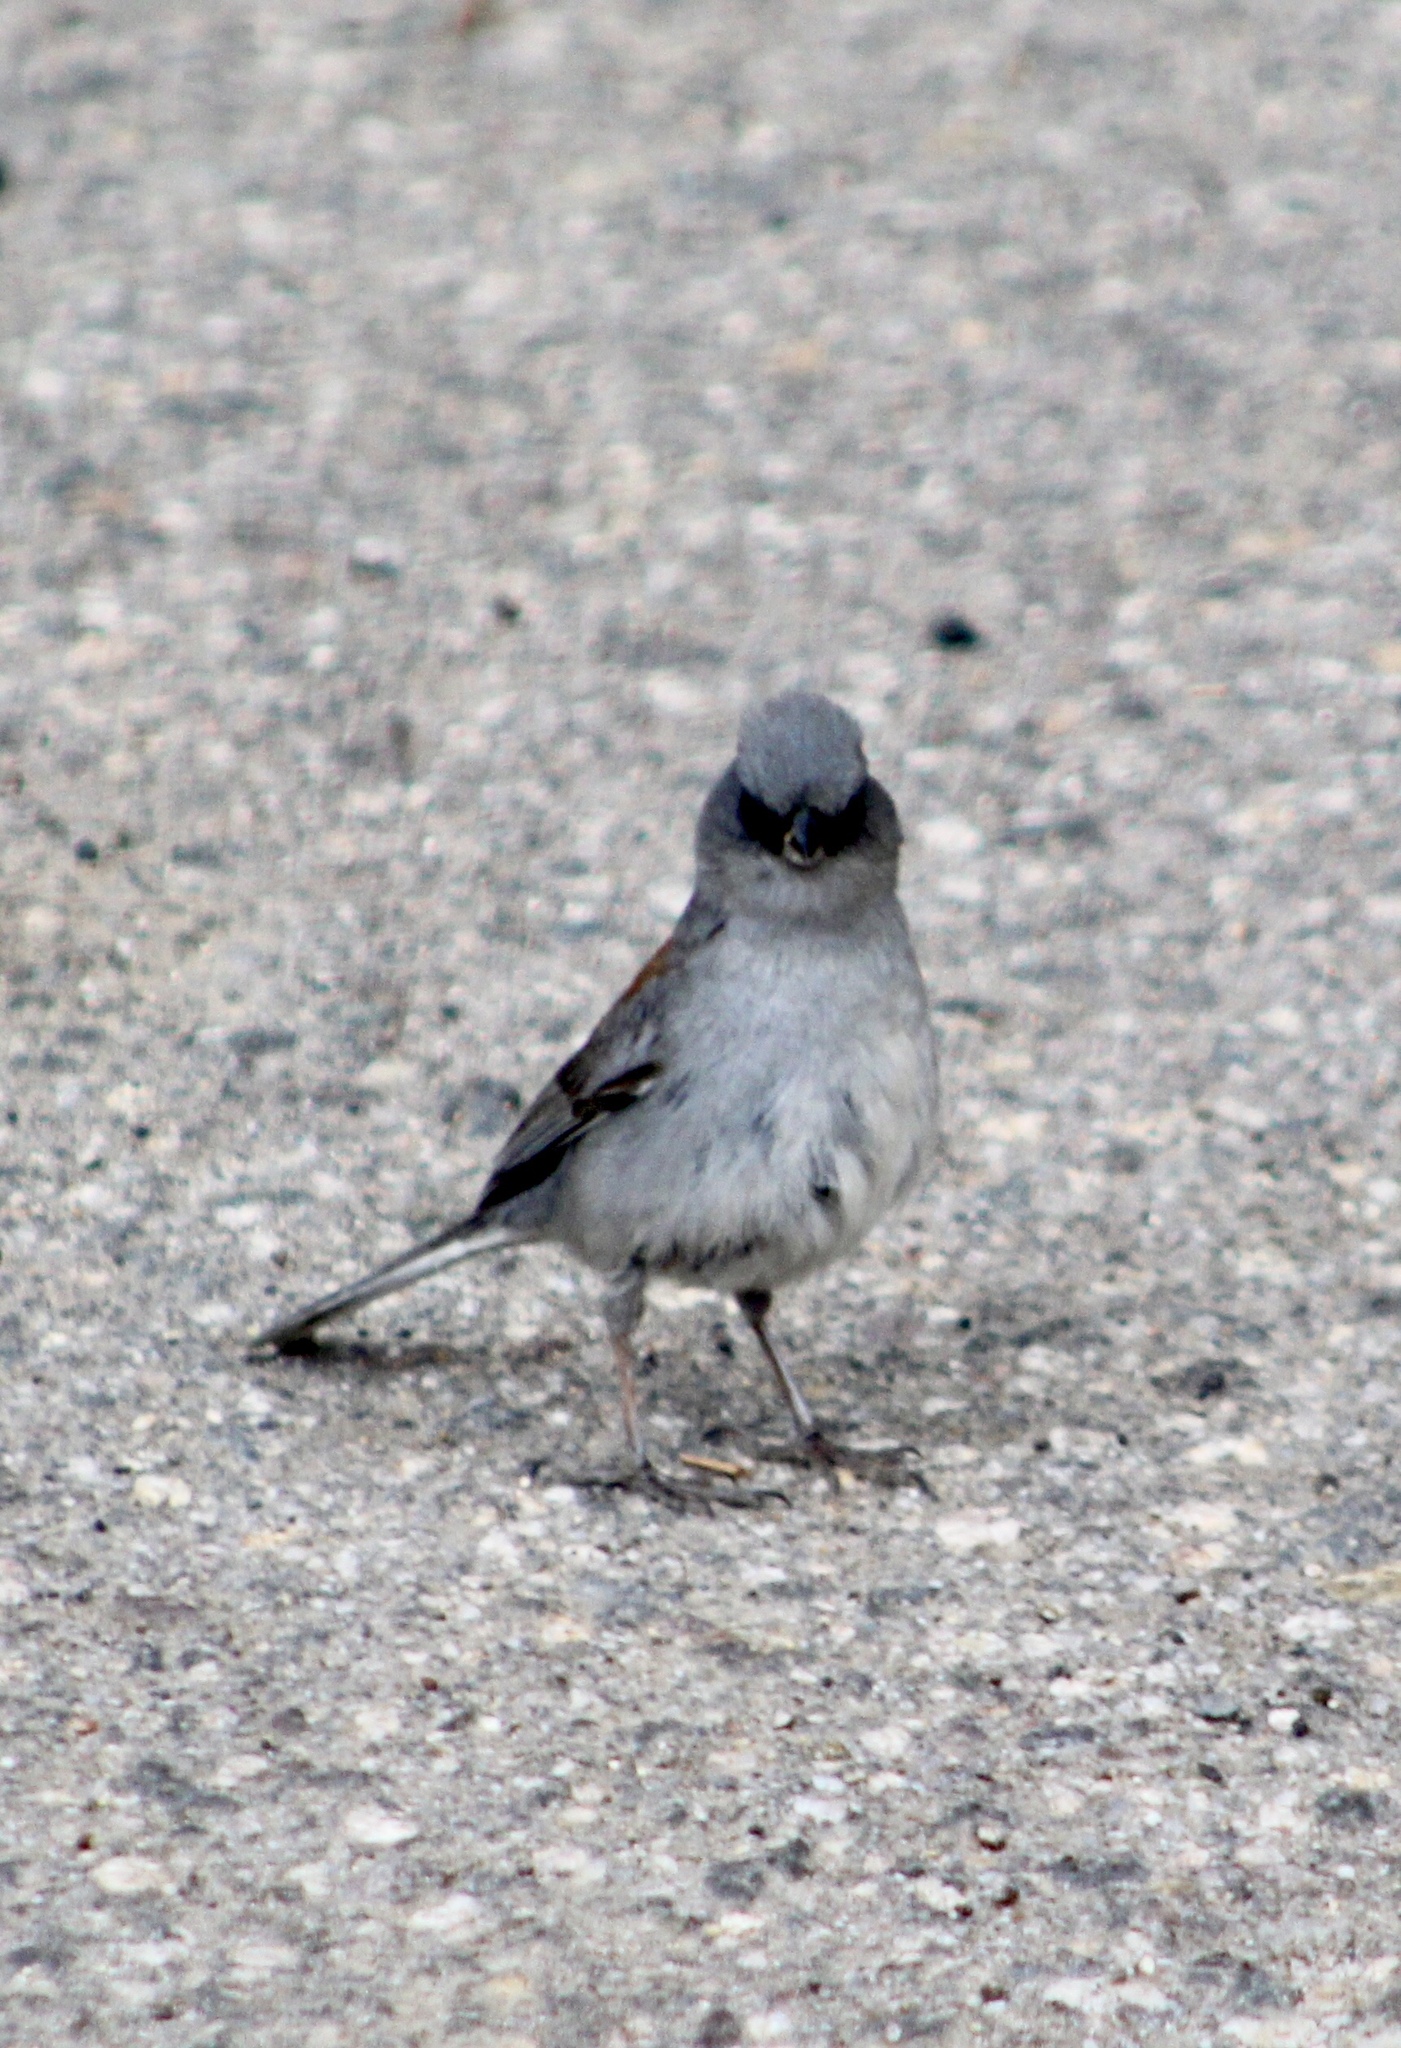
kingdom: Animalia
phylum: Chordata
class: Aves
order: Passeriformes
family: Passerellidae
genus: Junco
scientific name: Junco hyemalis
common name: Dark-eyed junco
